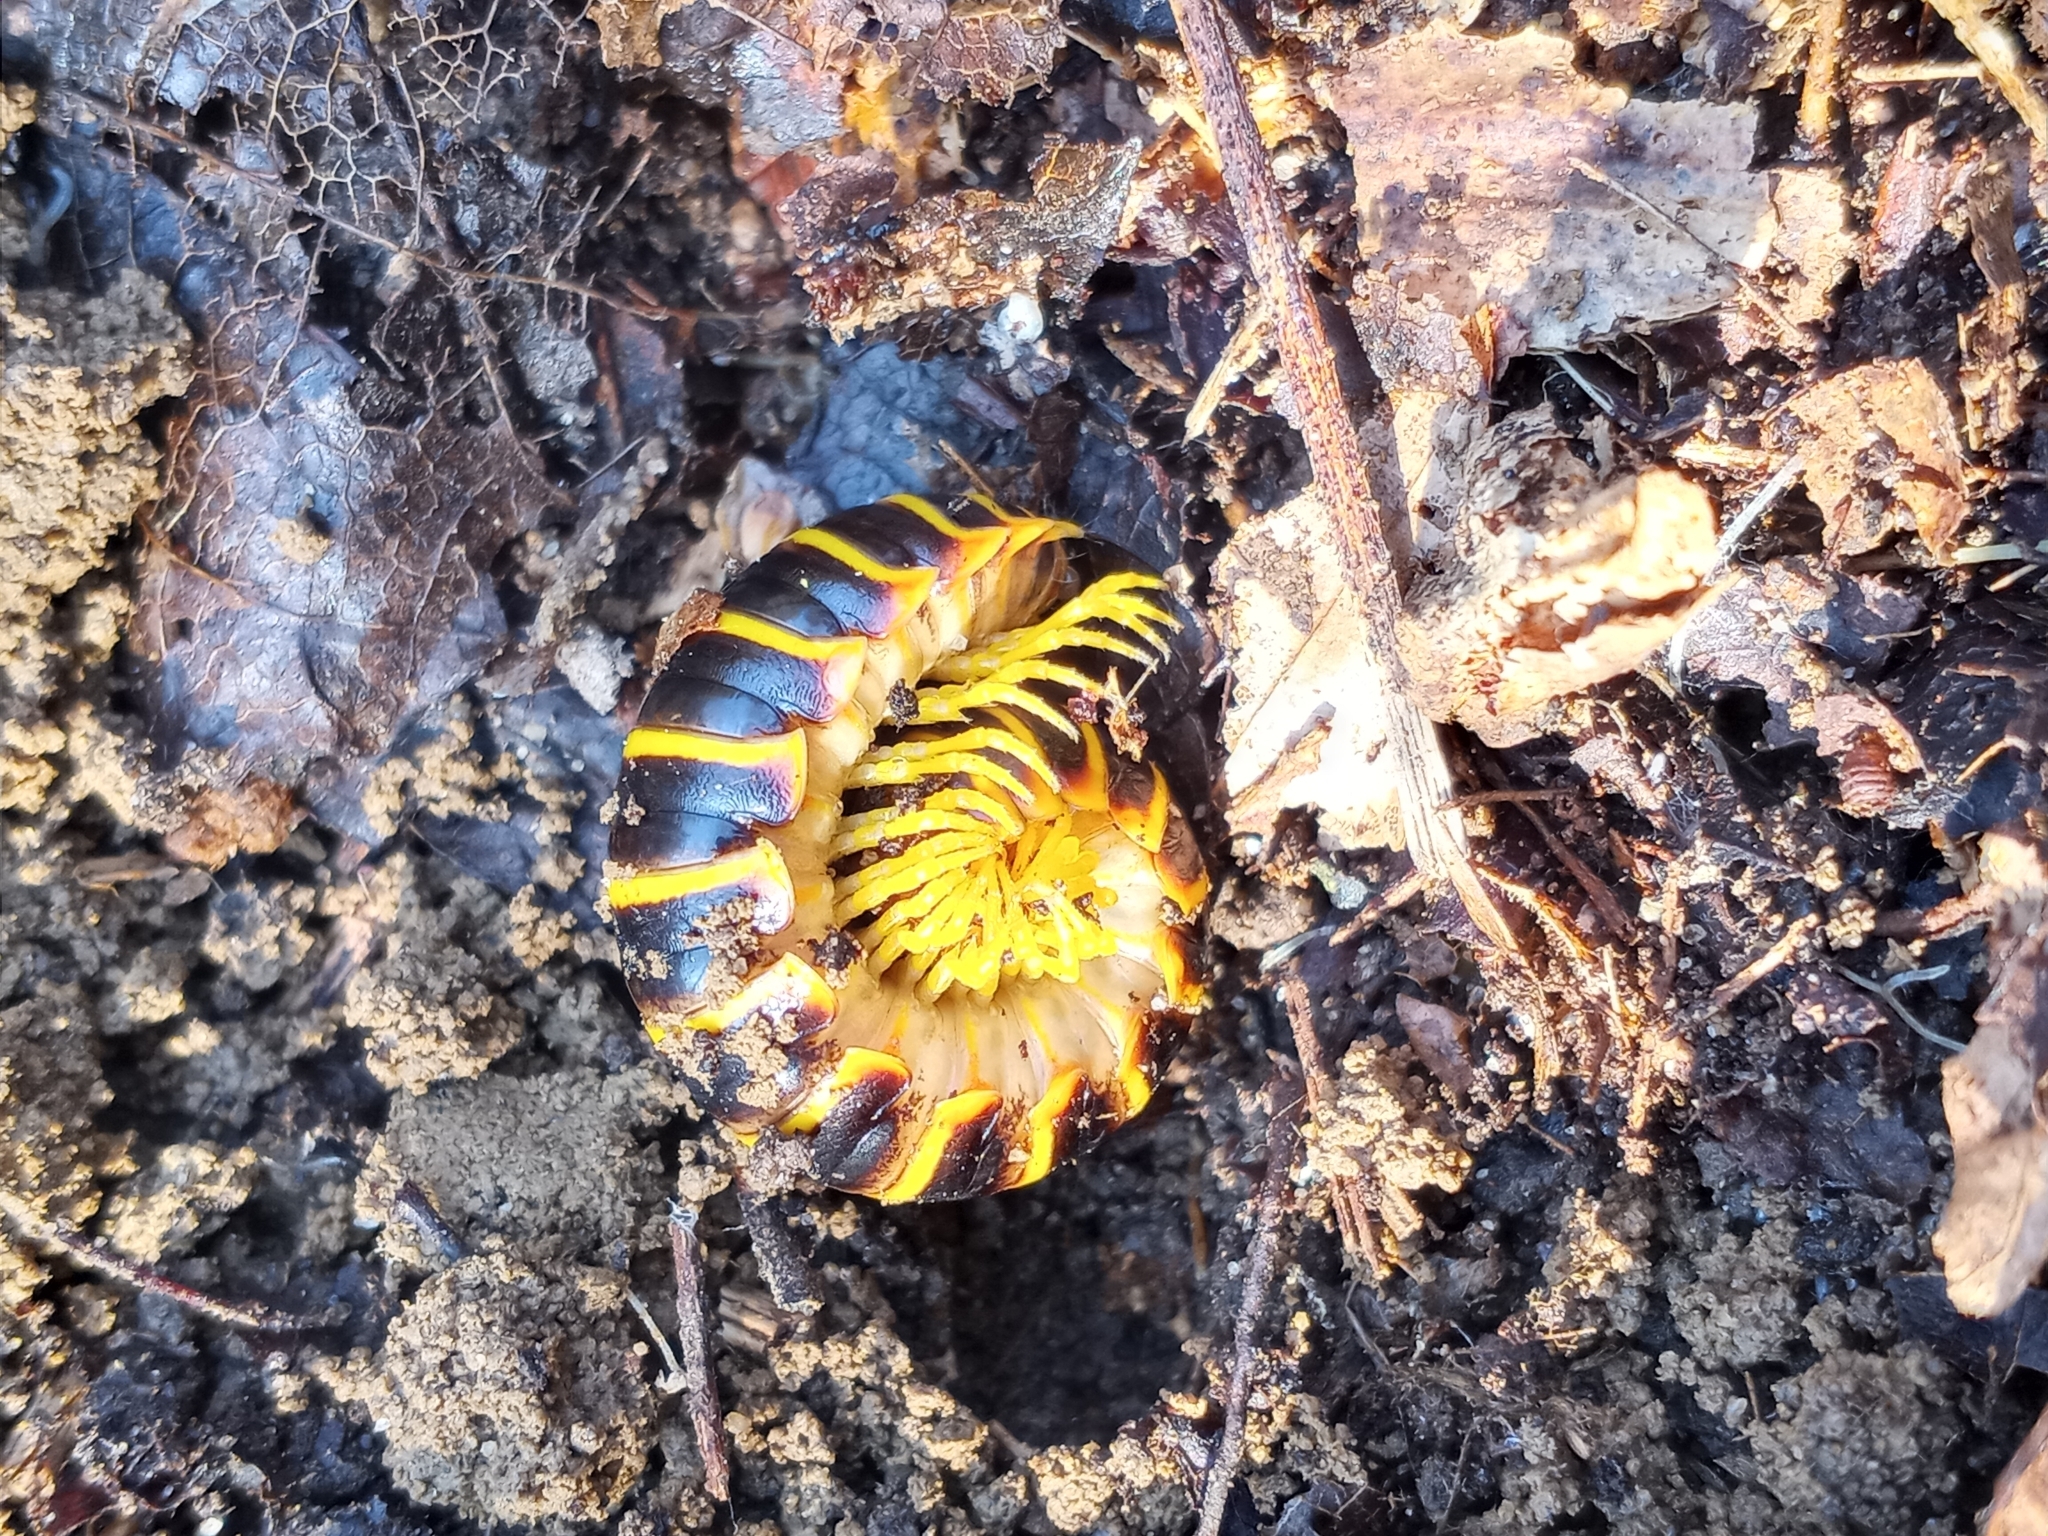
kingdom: Animalia
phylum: Arthropoda
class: Diplopoda
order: Polydesmida
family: Xystodesmidae
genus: Apheloria
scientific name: Apheloria virginiensis
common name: Black-and-gold flat millipede
